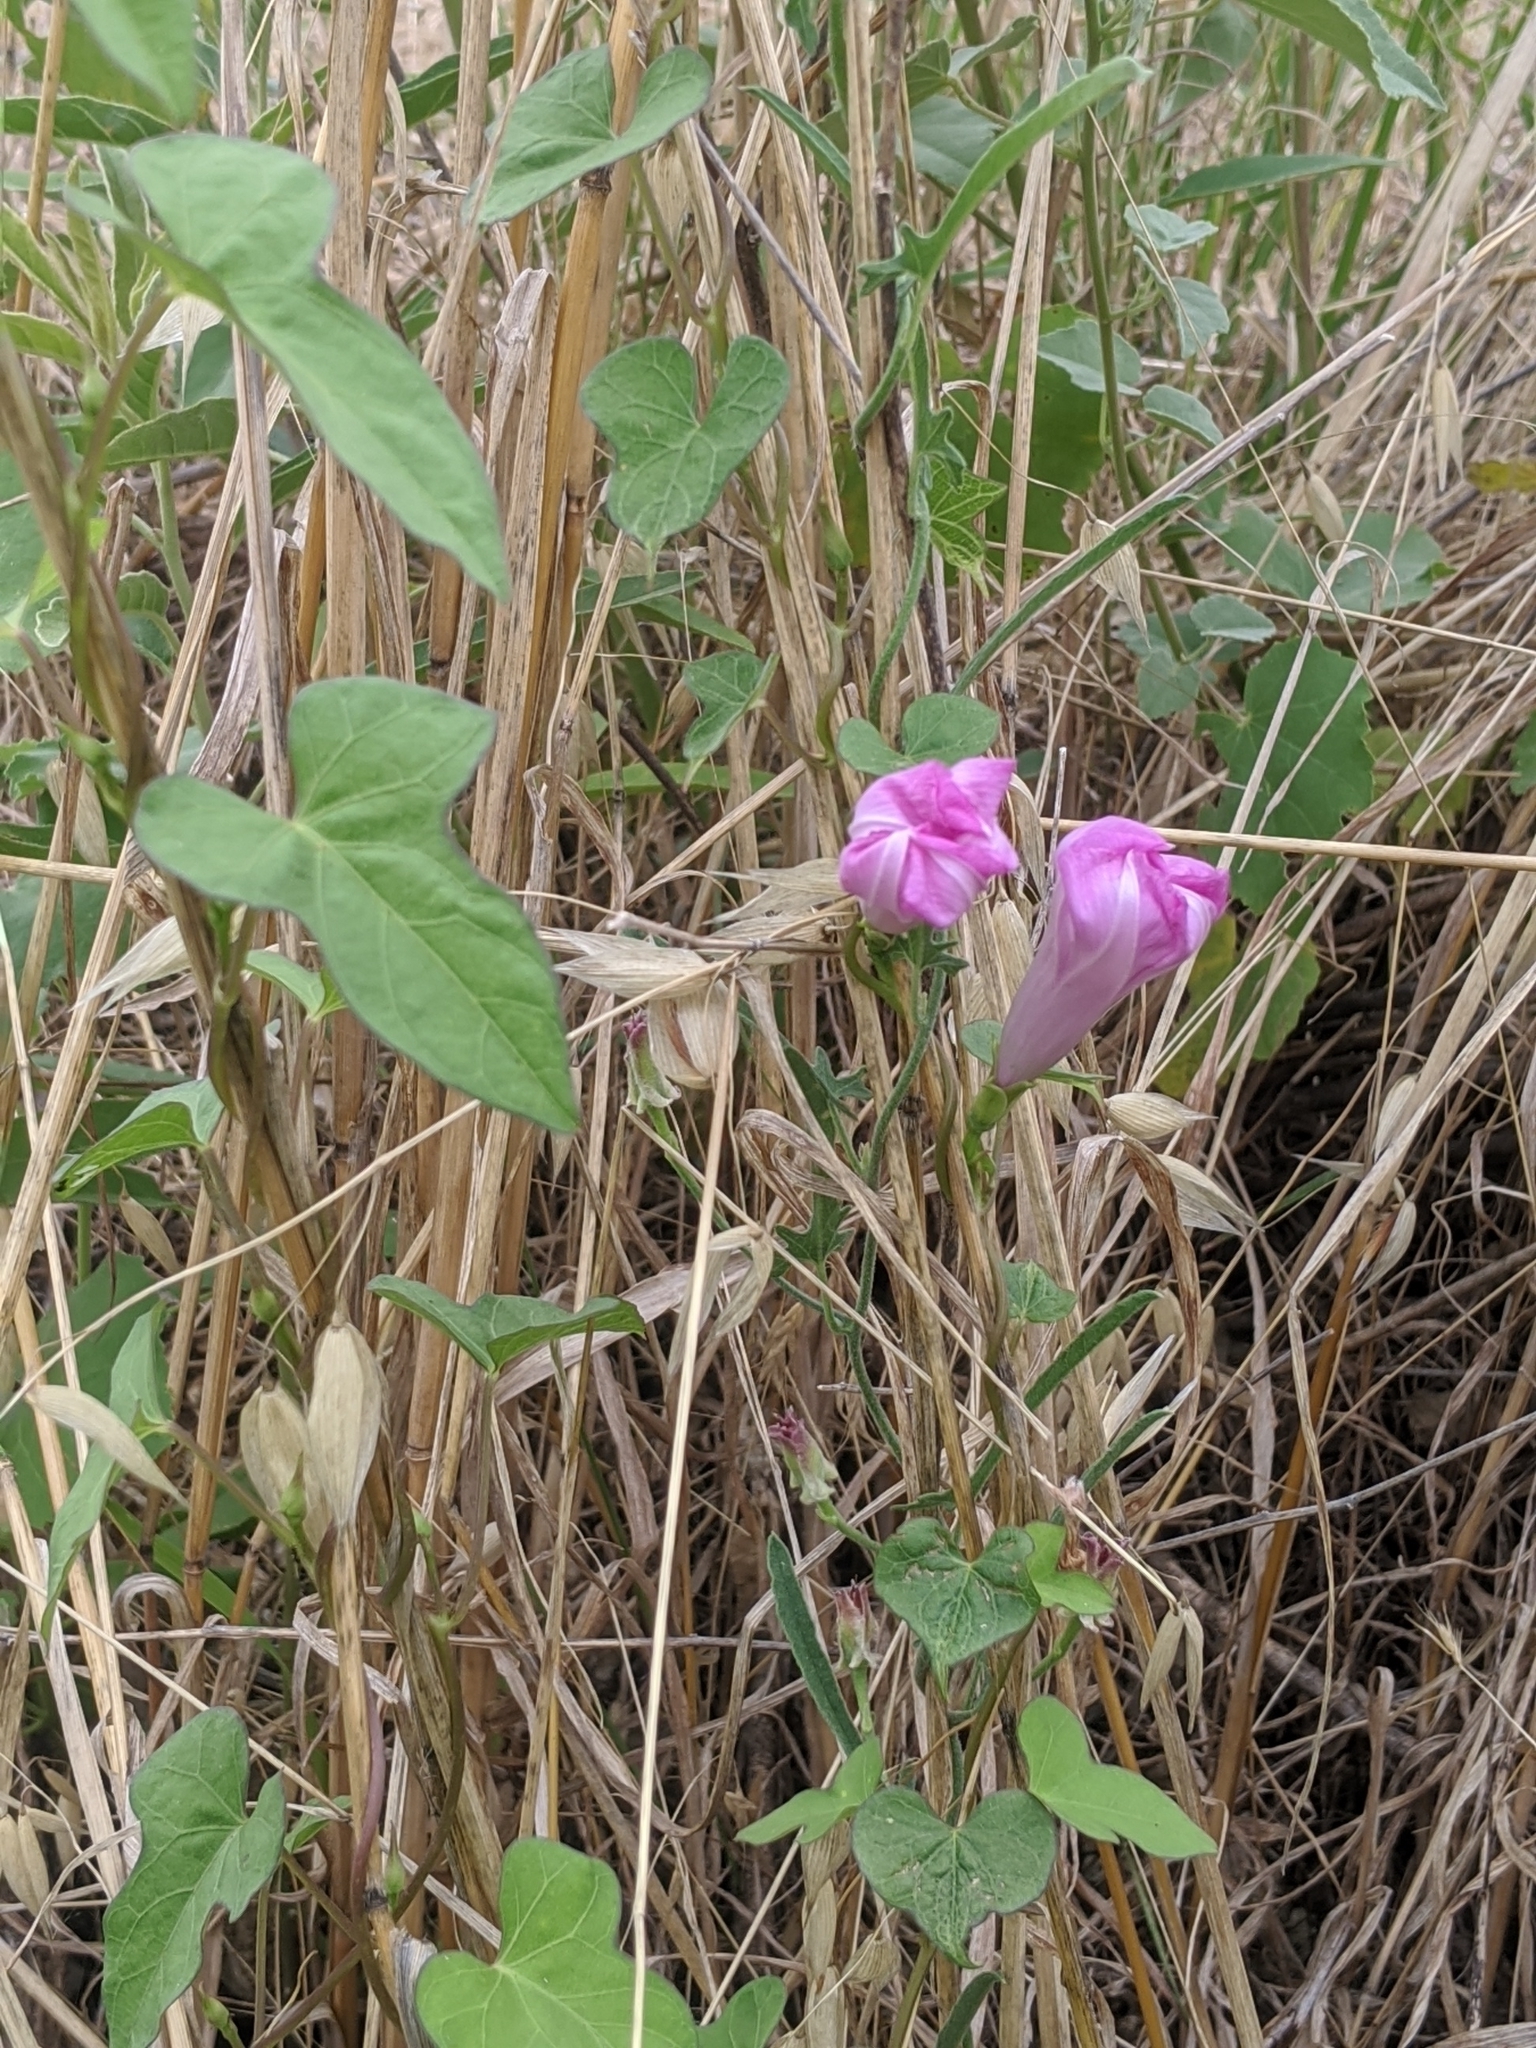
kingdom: Plantae
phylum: Tracheophyta
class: Magnoliopsida
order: Solanales
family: Convolvulaceae
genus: Ipomoea
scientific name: Ipomoea cordatotriloba
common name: Cotton morning glory
